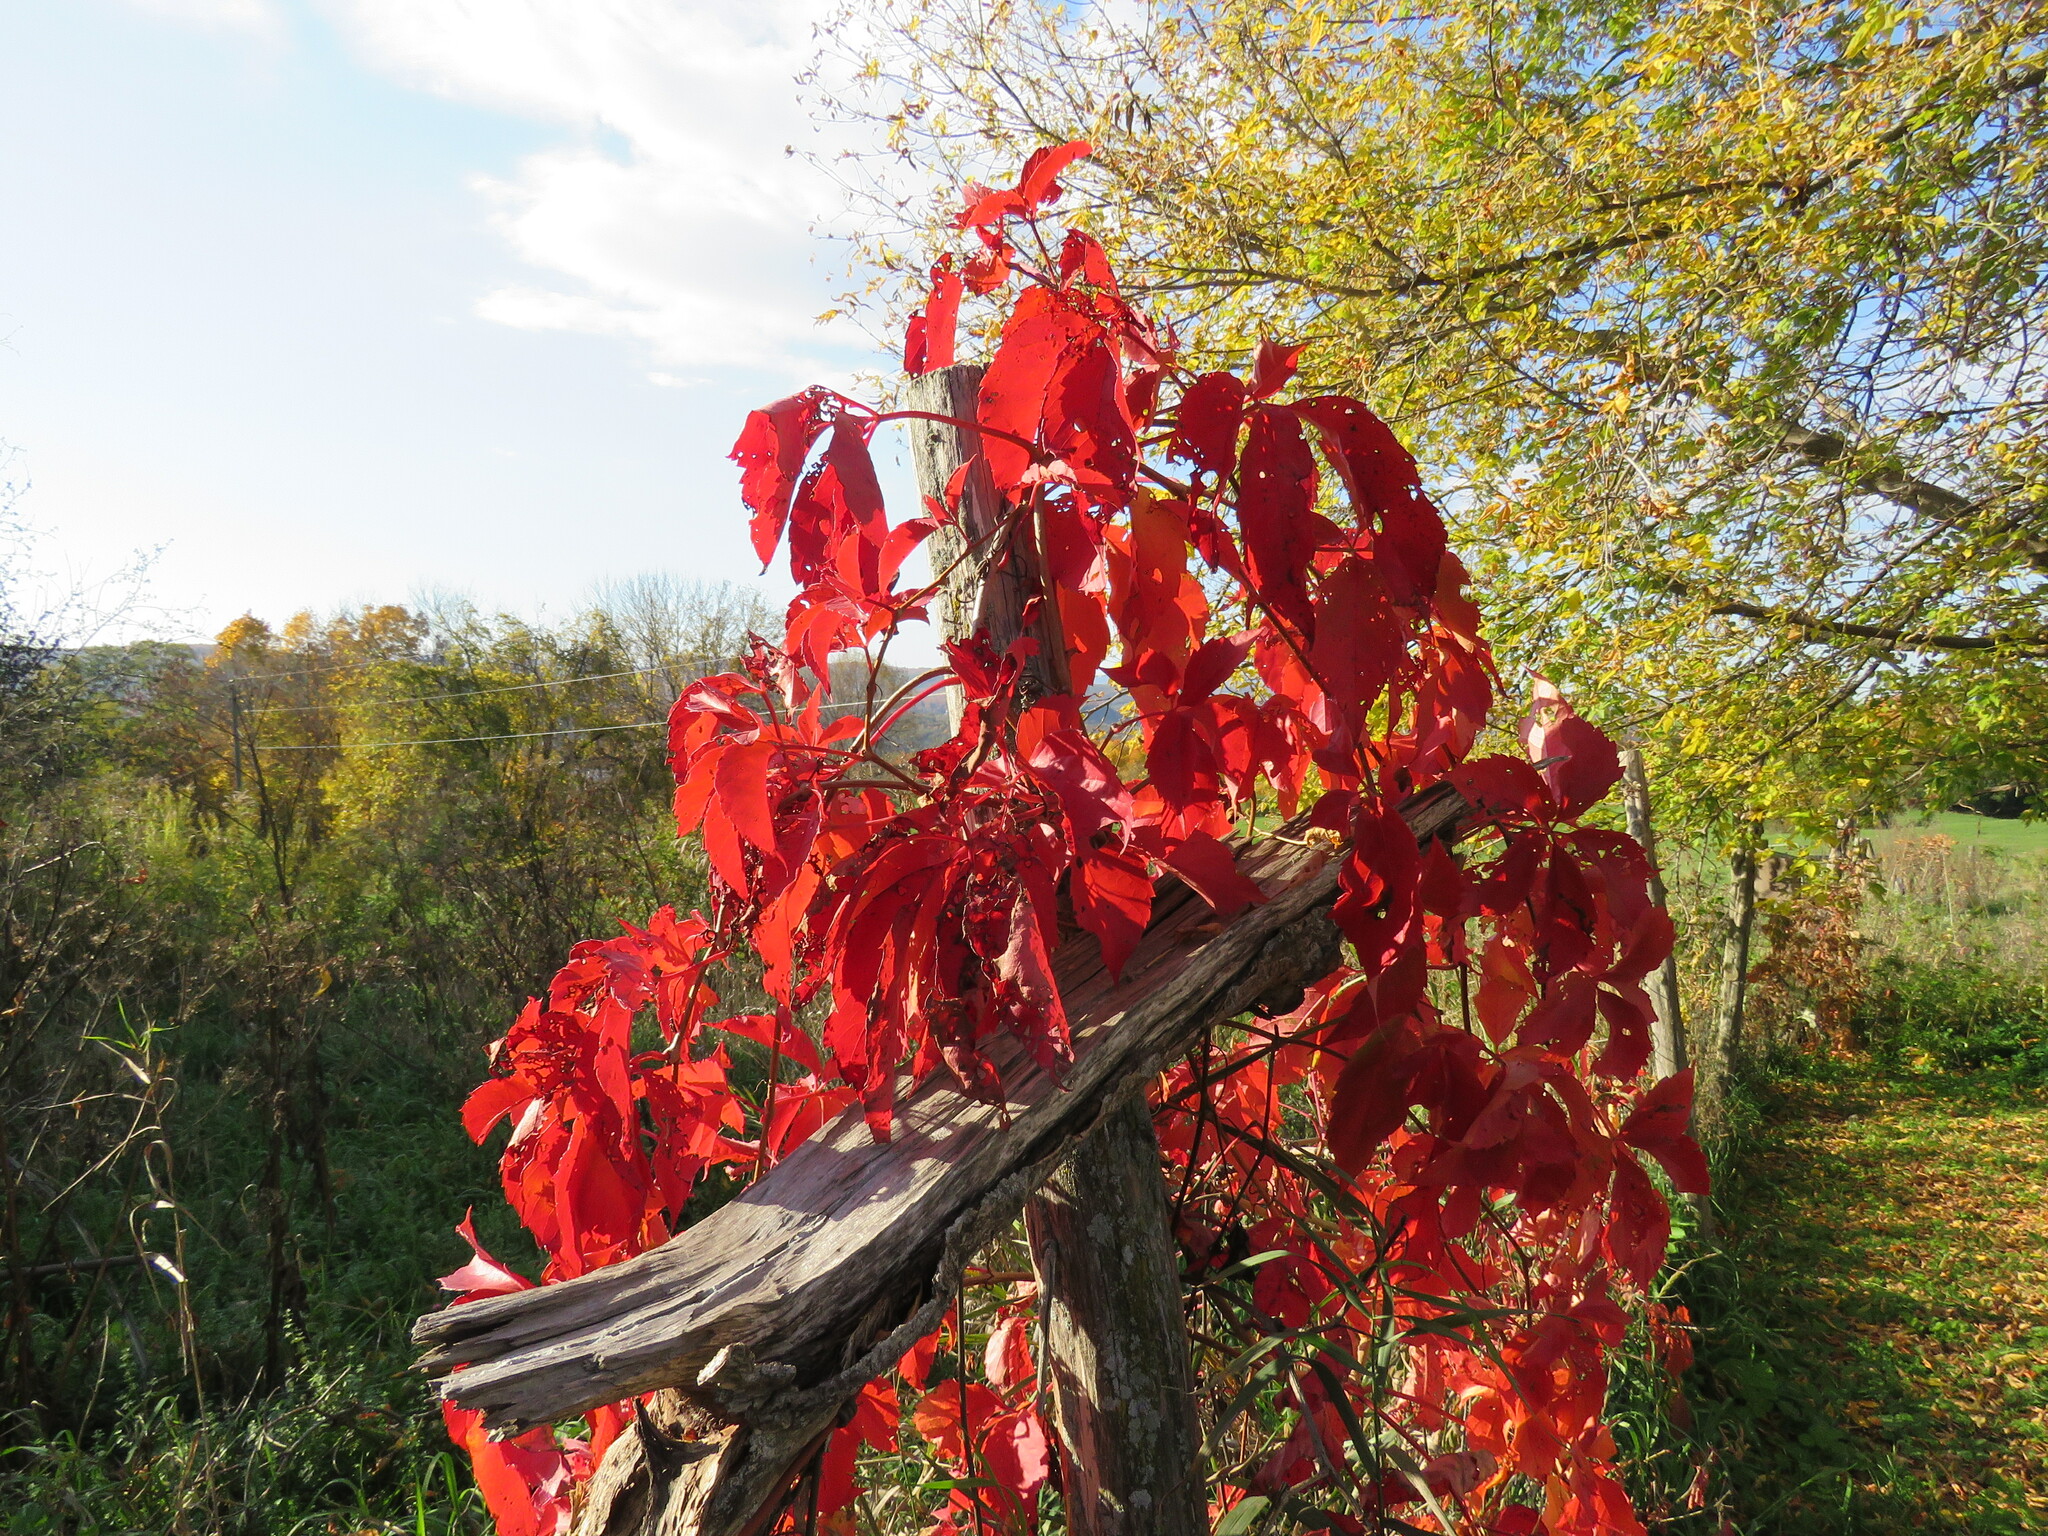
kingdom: Plantae
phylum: Tracheophyta
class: Magnoliopsida
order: Vitales
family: Vitaceae
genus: Parthenocissus
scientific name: Parthenocissus quinquefolia
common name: Virginia-creeper
